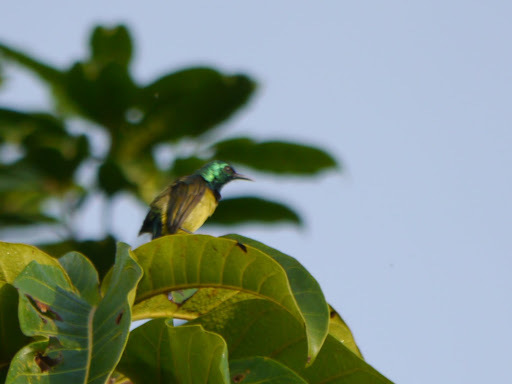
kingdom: Animalia
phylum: Chordata
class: Aves
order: Passeriformes
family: Nectariniidae
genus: Hedydipna
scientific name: Hedydipna collaris
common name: Collared sunbird
